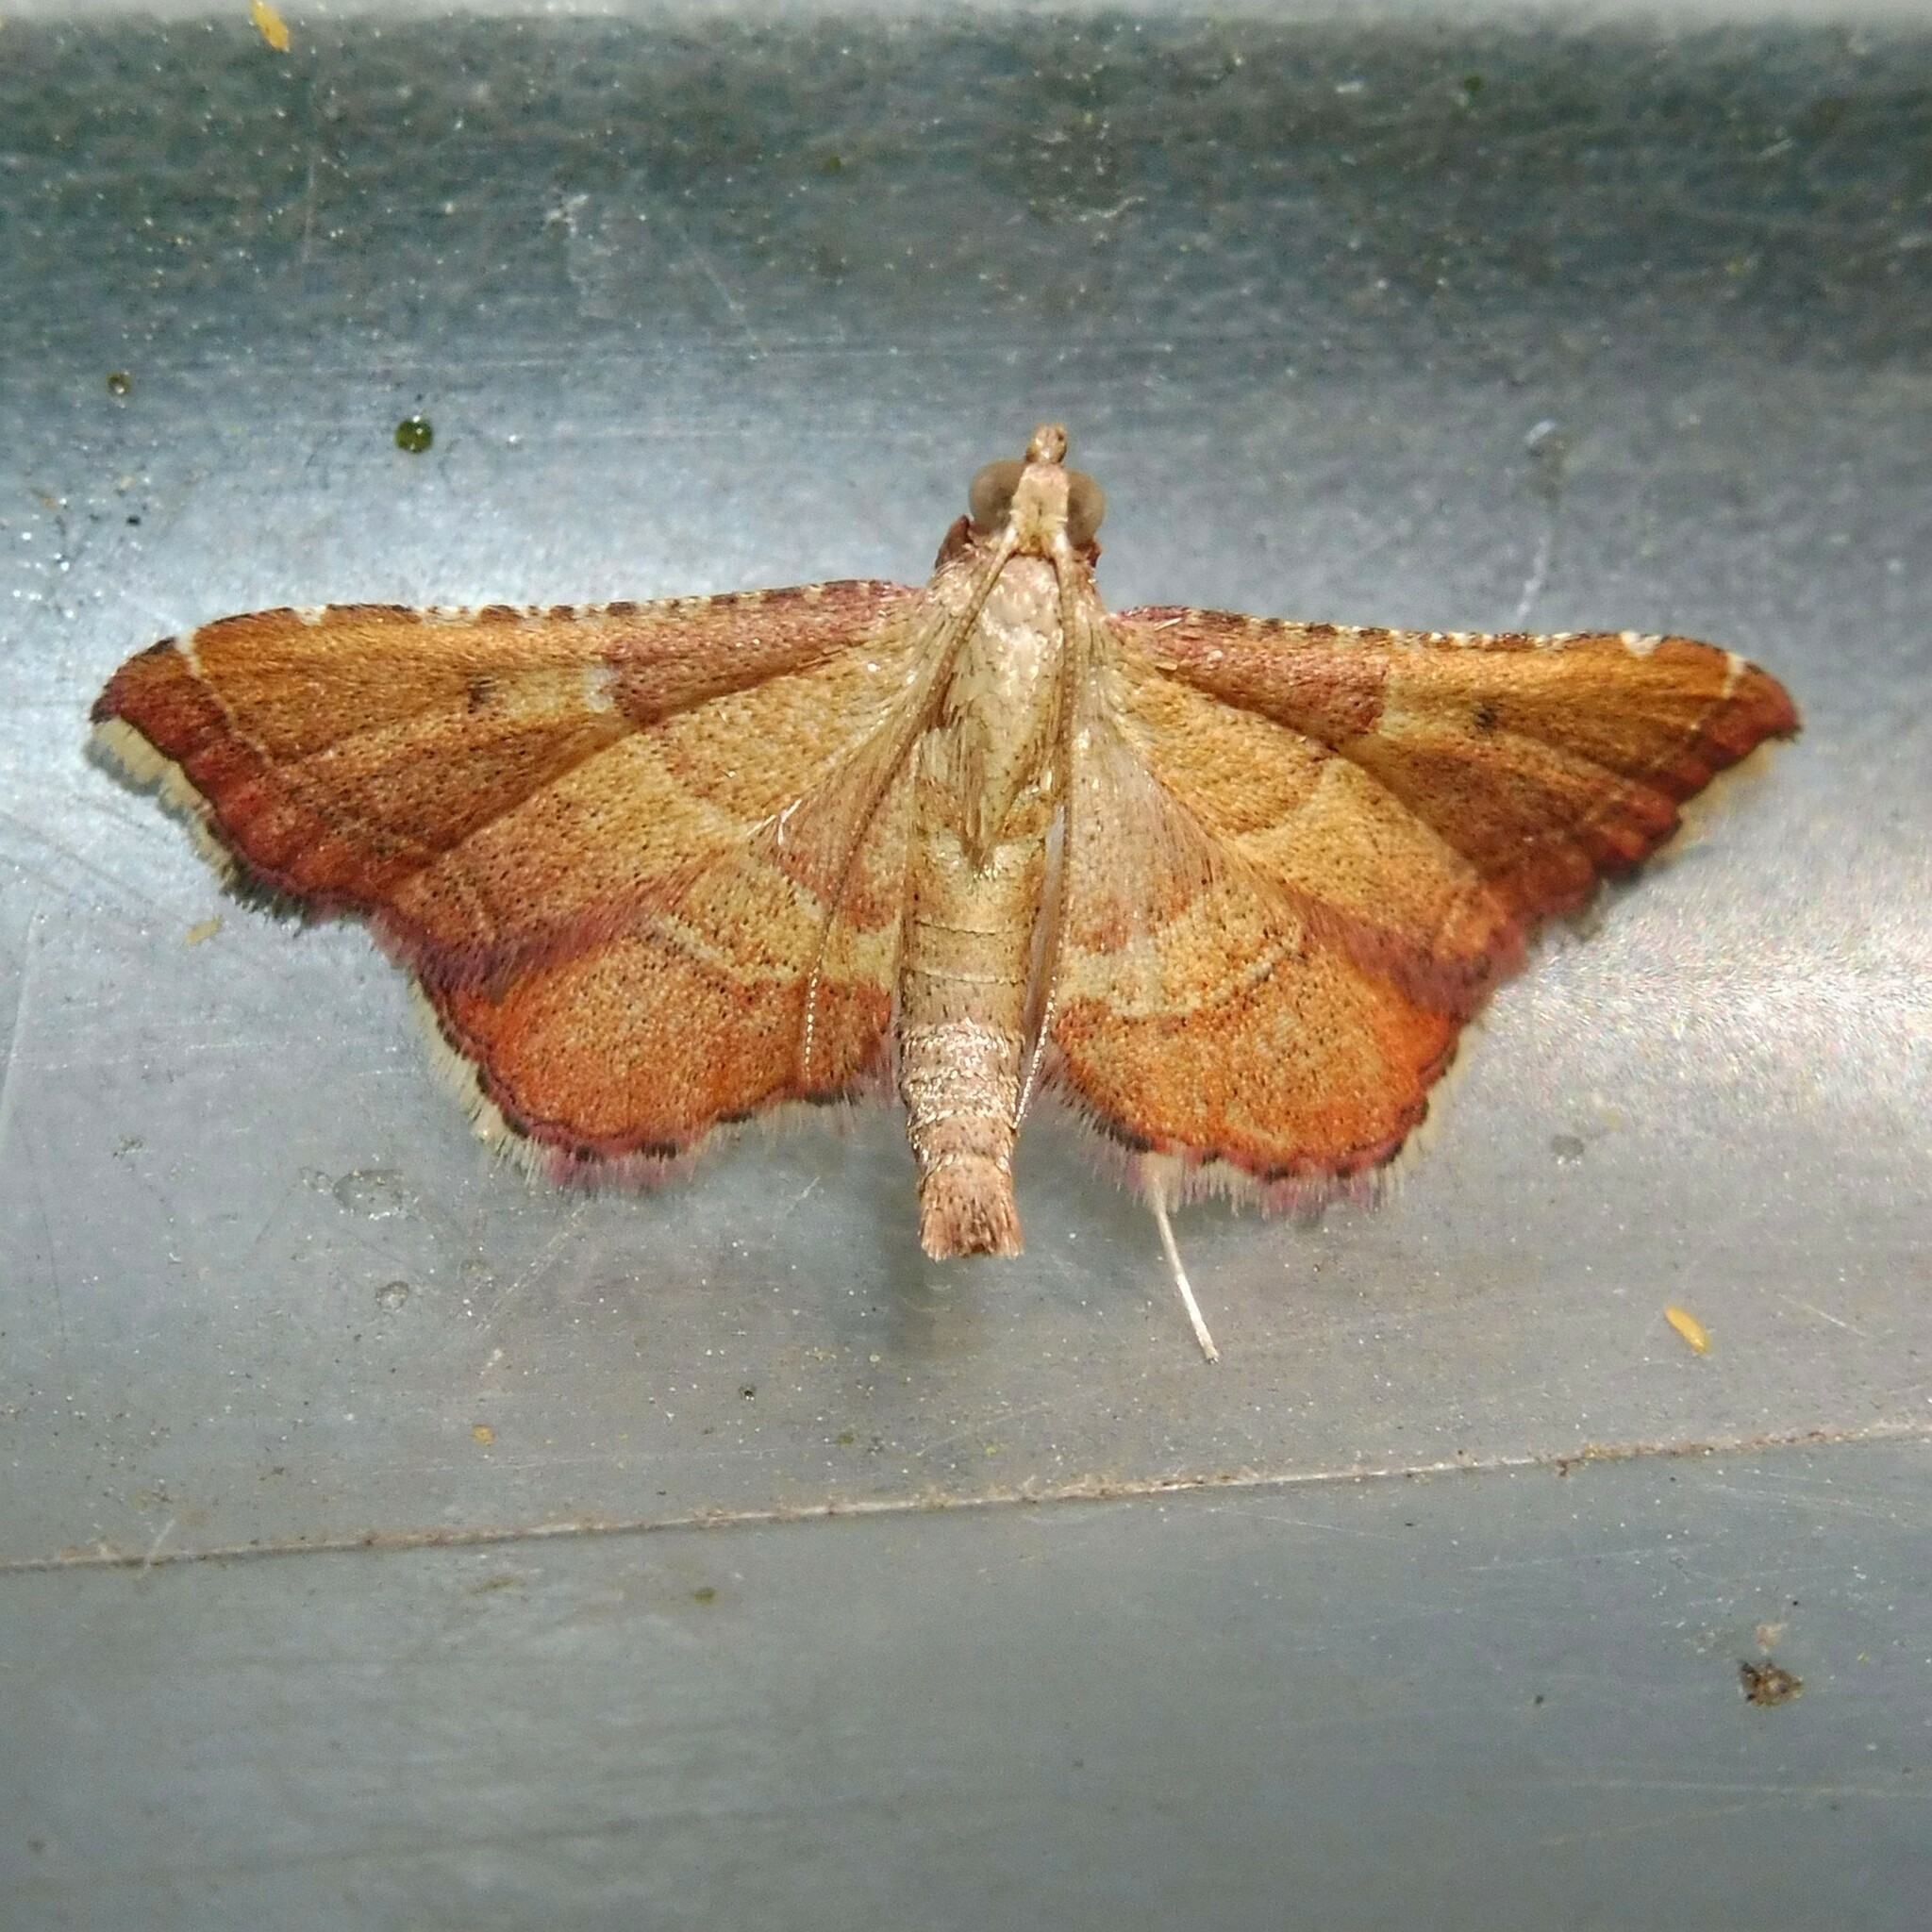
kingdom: Animalia
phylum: Arthropoda
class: Insecta
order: Lepidoptera
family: Pyralidae
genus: Endotricha
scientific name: Endotricha flammealis
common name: Rosy tabby
